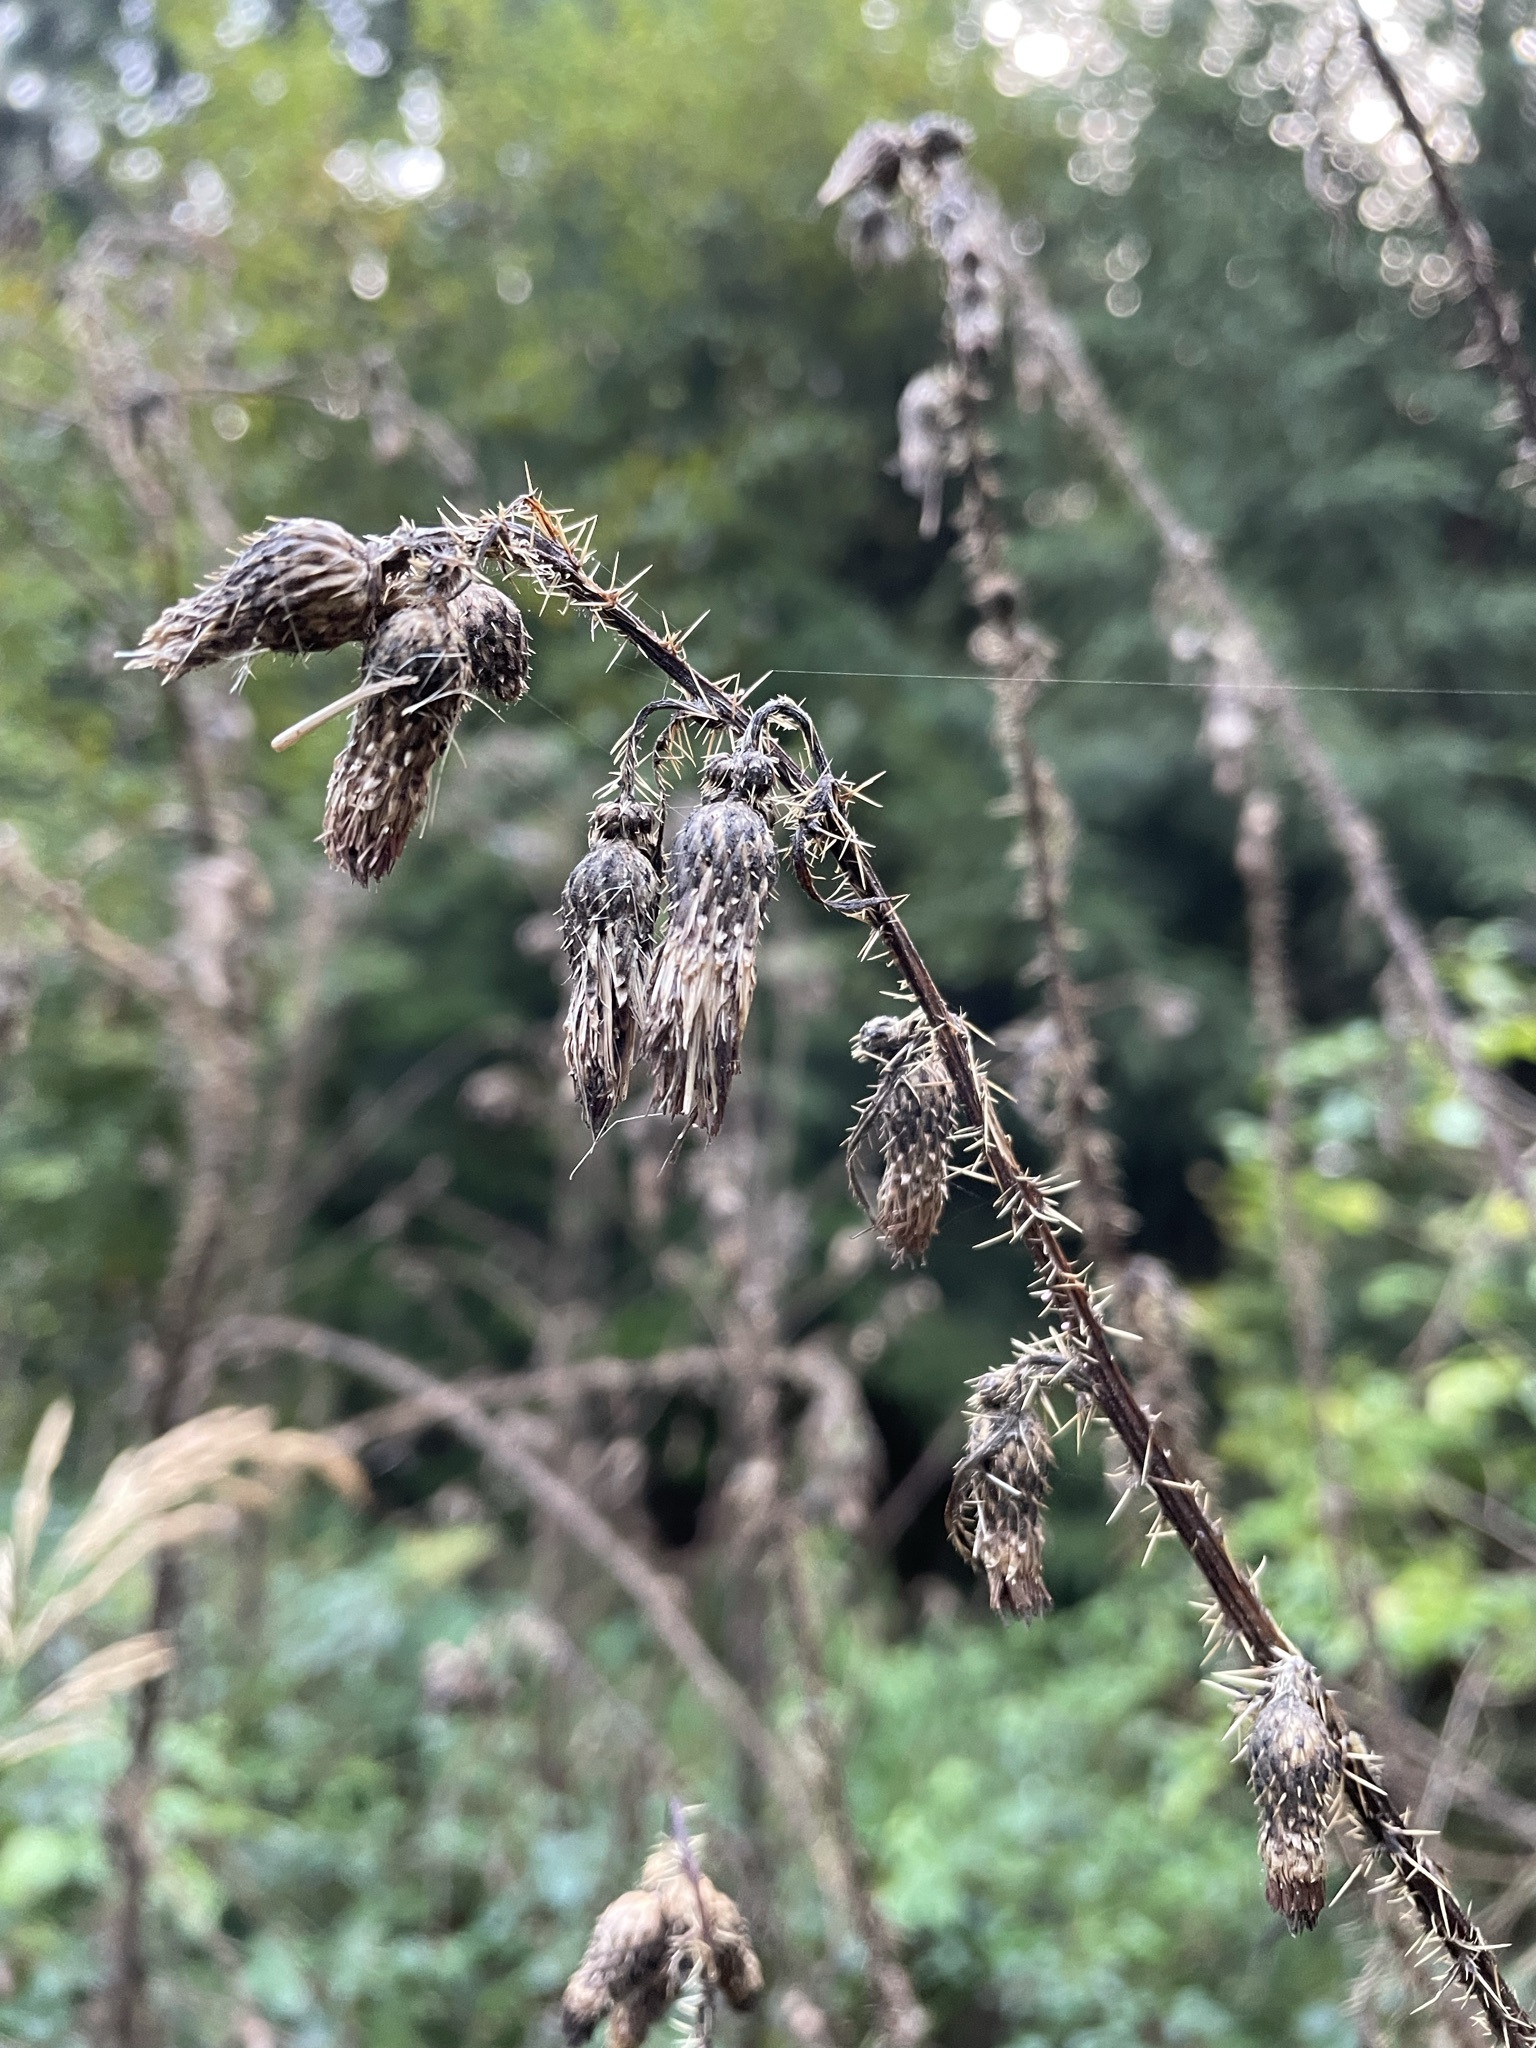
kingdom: Plantae
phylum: Tracheophyta
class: Magnoliopsida
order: Asterales
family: Asteraceae
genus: Cirsium
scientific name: Cirsium palustre
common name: Marsh thistle
